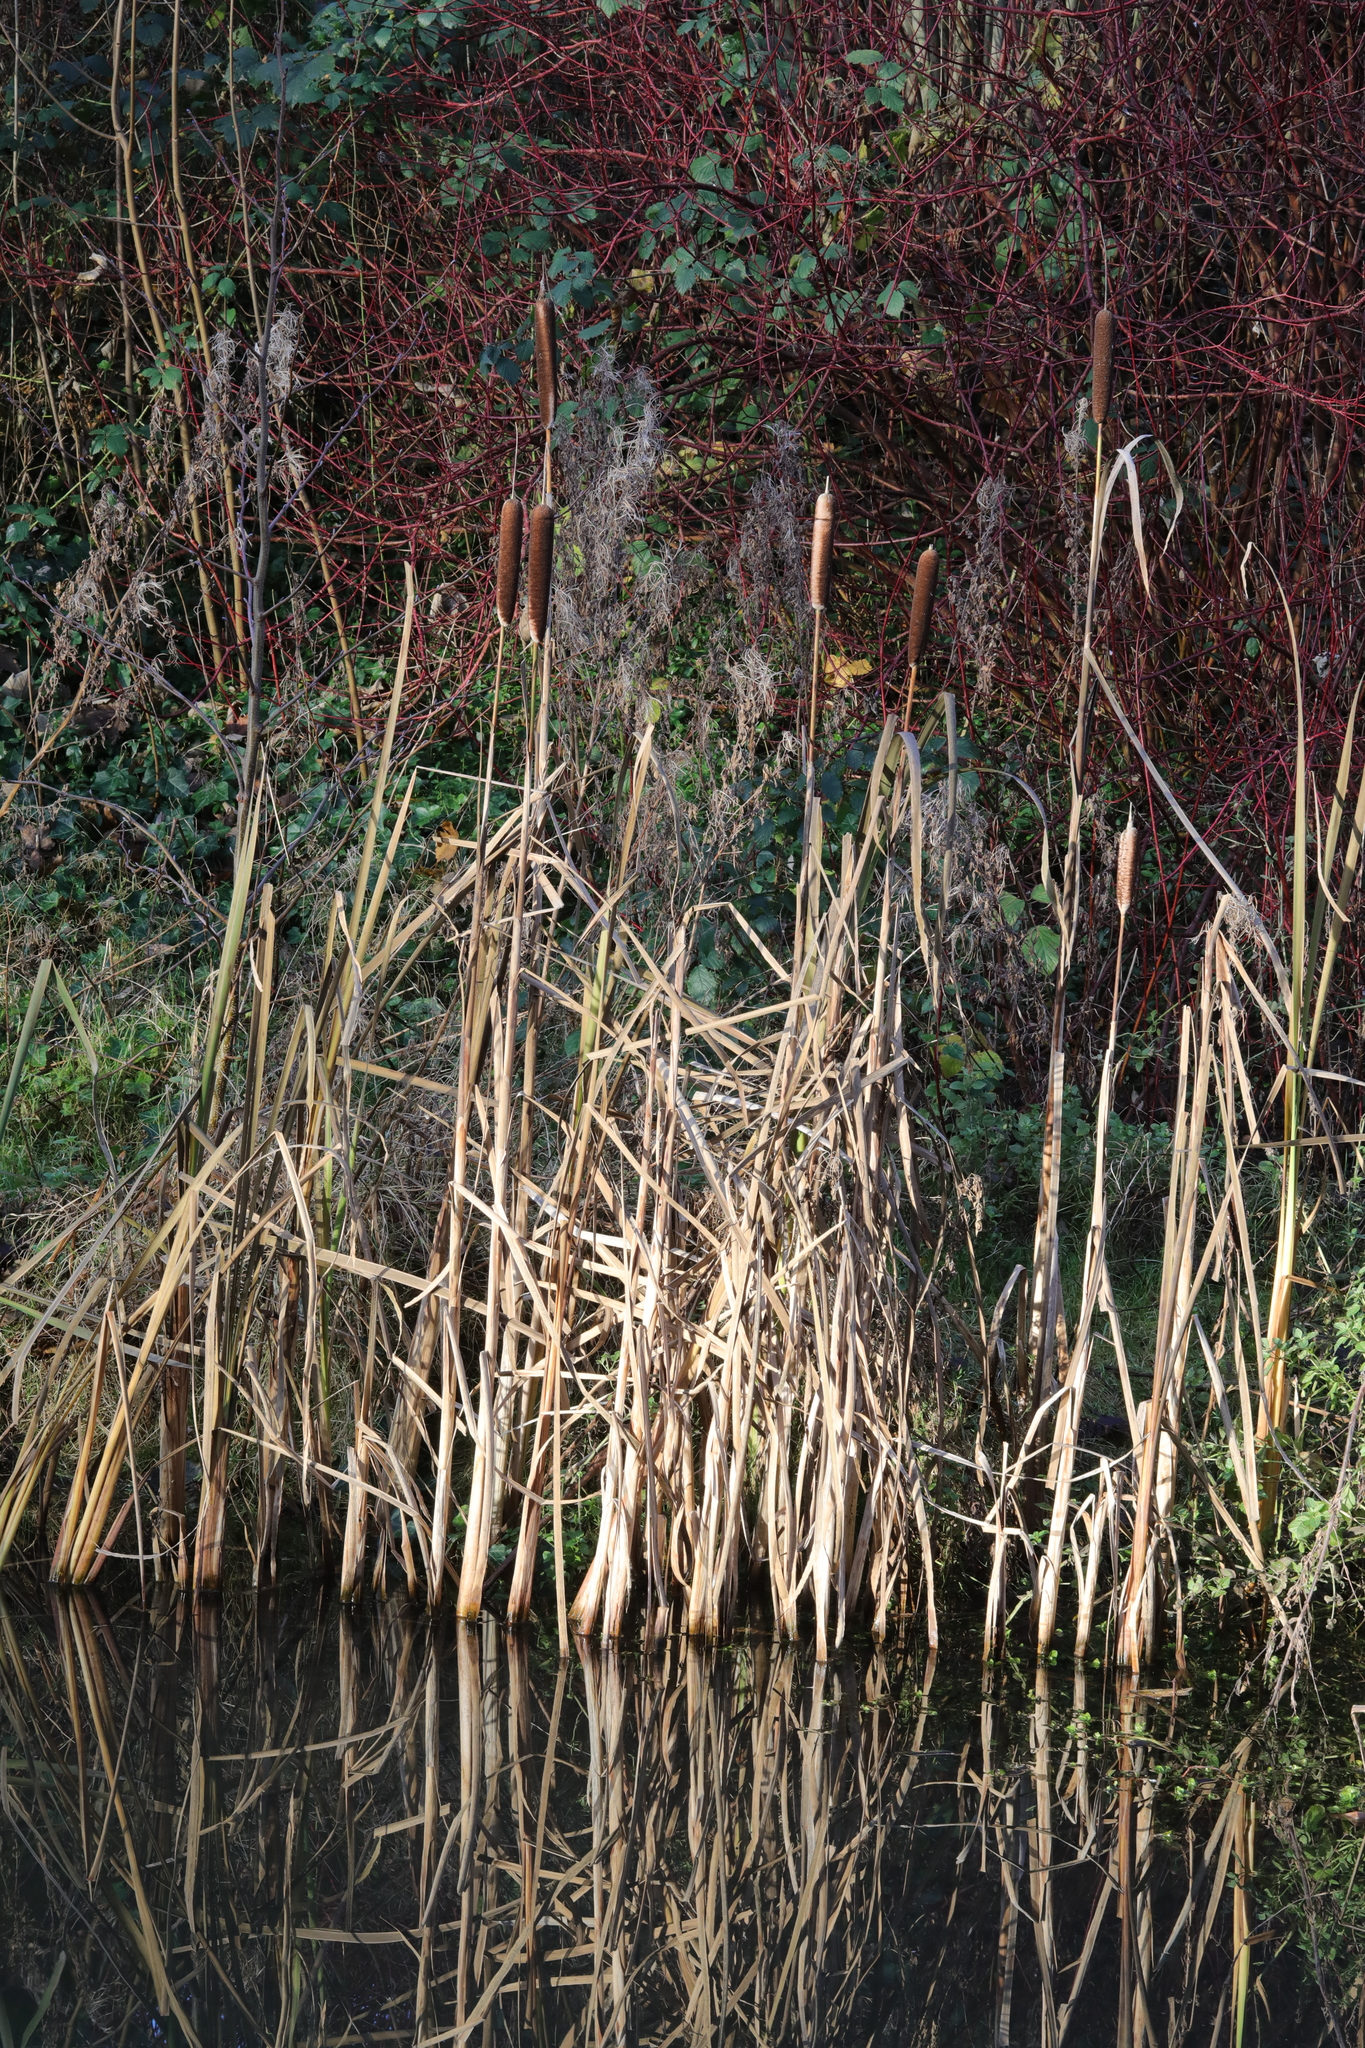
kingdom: Plantae
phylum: Tracheophyta
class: Liliopsida
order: Poales
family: Typhaceae
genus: Typha
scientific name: Typha latifolia
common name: Broadleaf cattail
